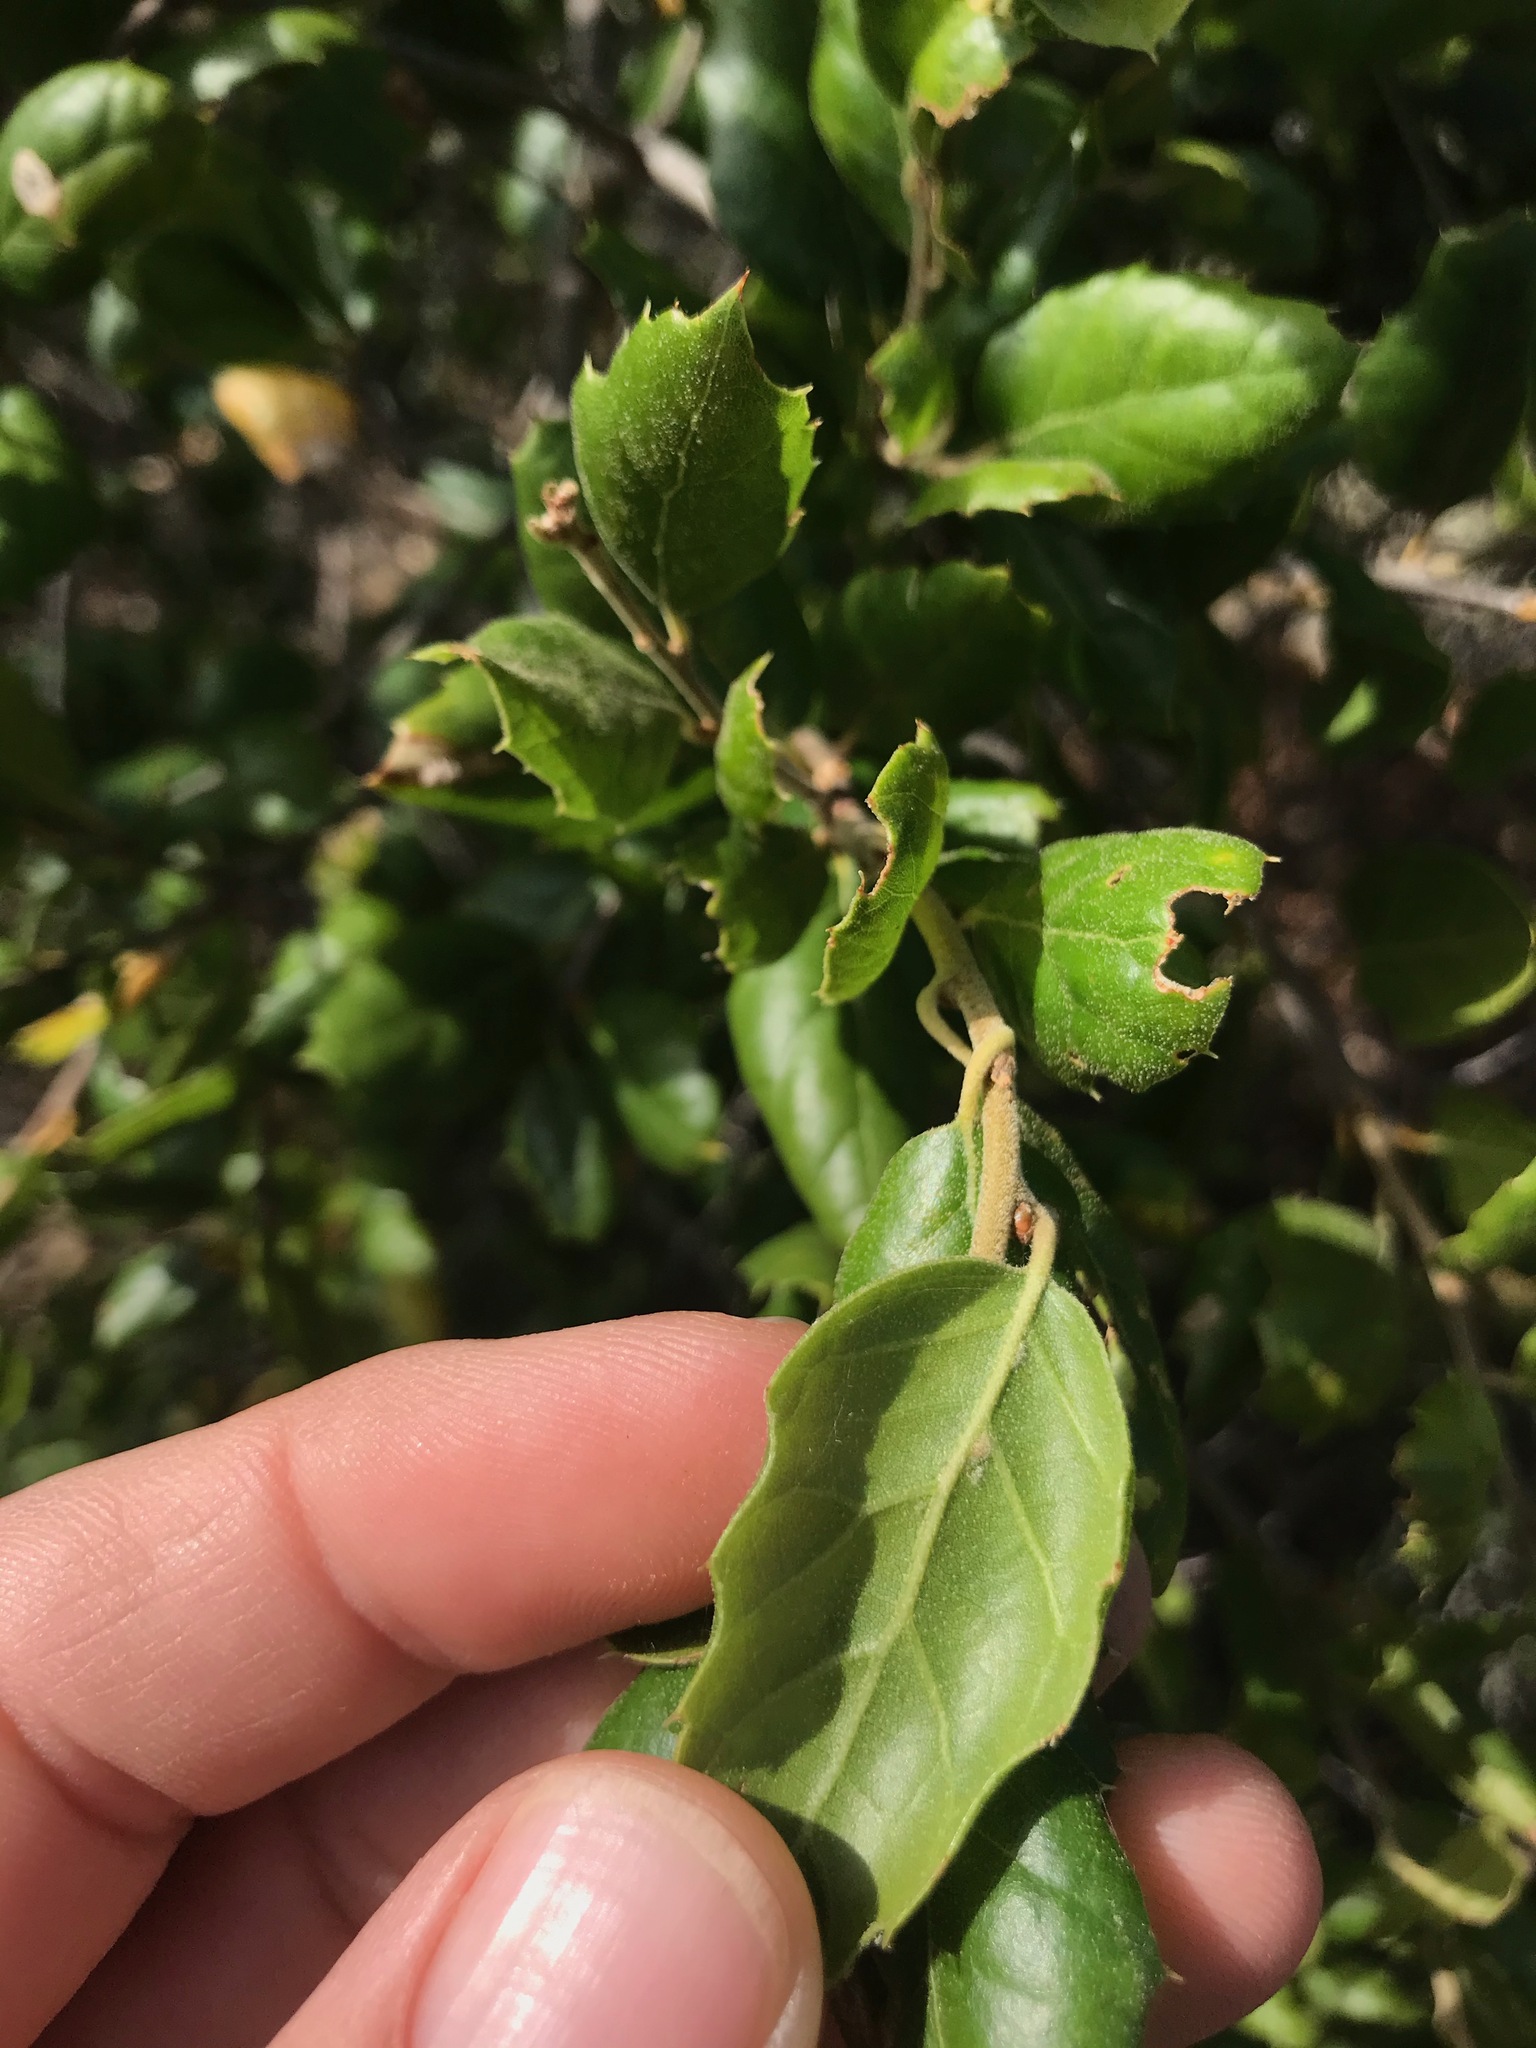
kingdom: Plantae
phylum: Tracheophyta
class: Magnoliopsida
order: Fagales
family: Fagaceae
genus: Quercus
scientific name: Quercus agrifolia
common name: California live oak
